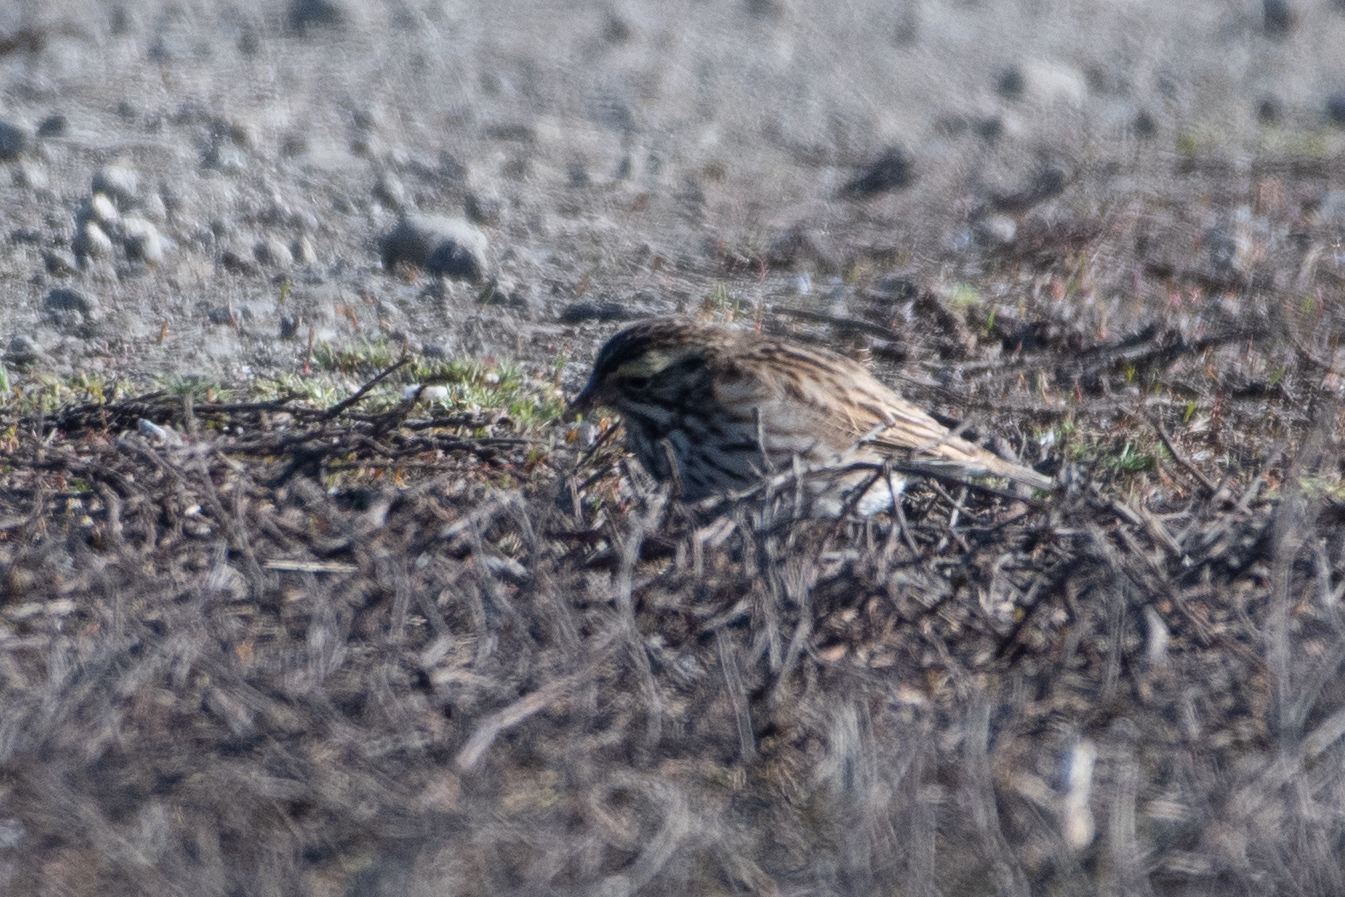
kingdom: Animalia
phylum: Chordata
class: Aves
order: Passeriformes
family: Passerellidae
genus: Passerculus
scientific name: Passerculus sandwichensis
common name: Savannah sparrow
